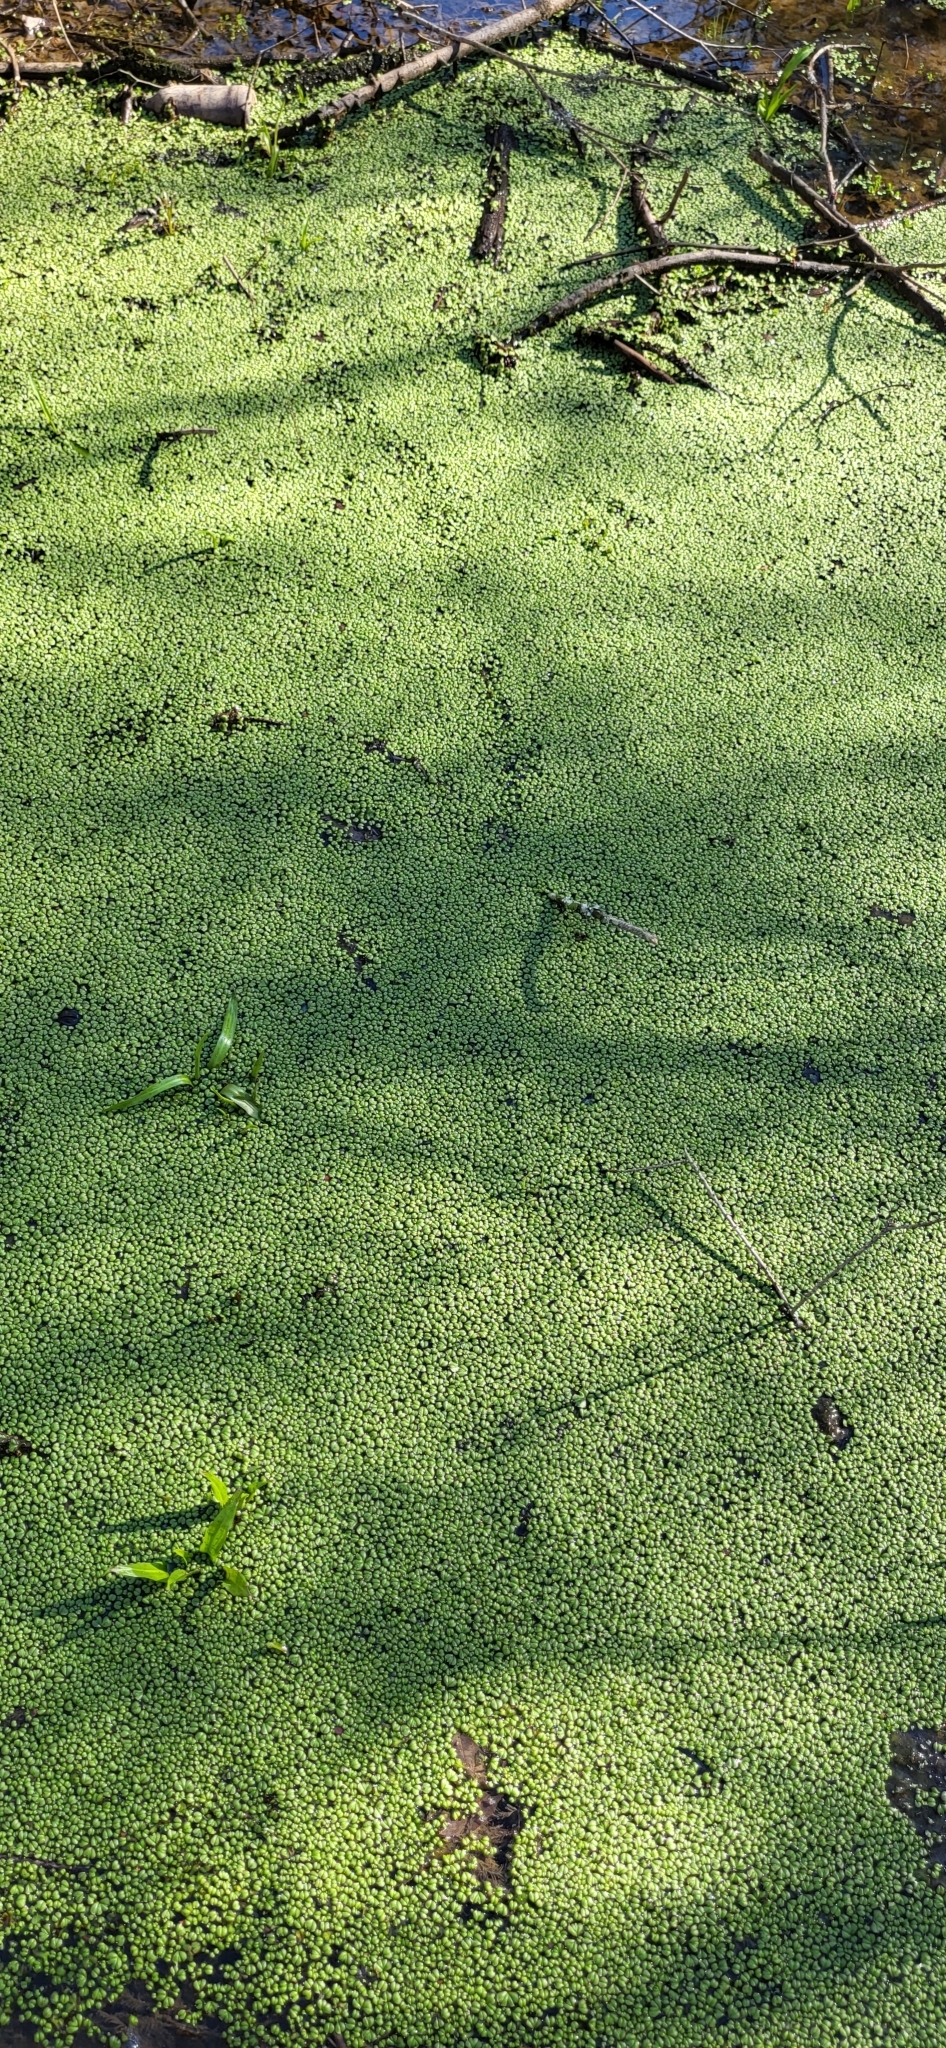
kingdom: Plantae
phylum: Marchantiophyta
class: Marchantiopsida
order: Marchantiales
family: Ricciaceae
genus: Ricciocarpos
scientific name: Ricciocarpos natans
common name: Purple-fringed liverwort
